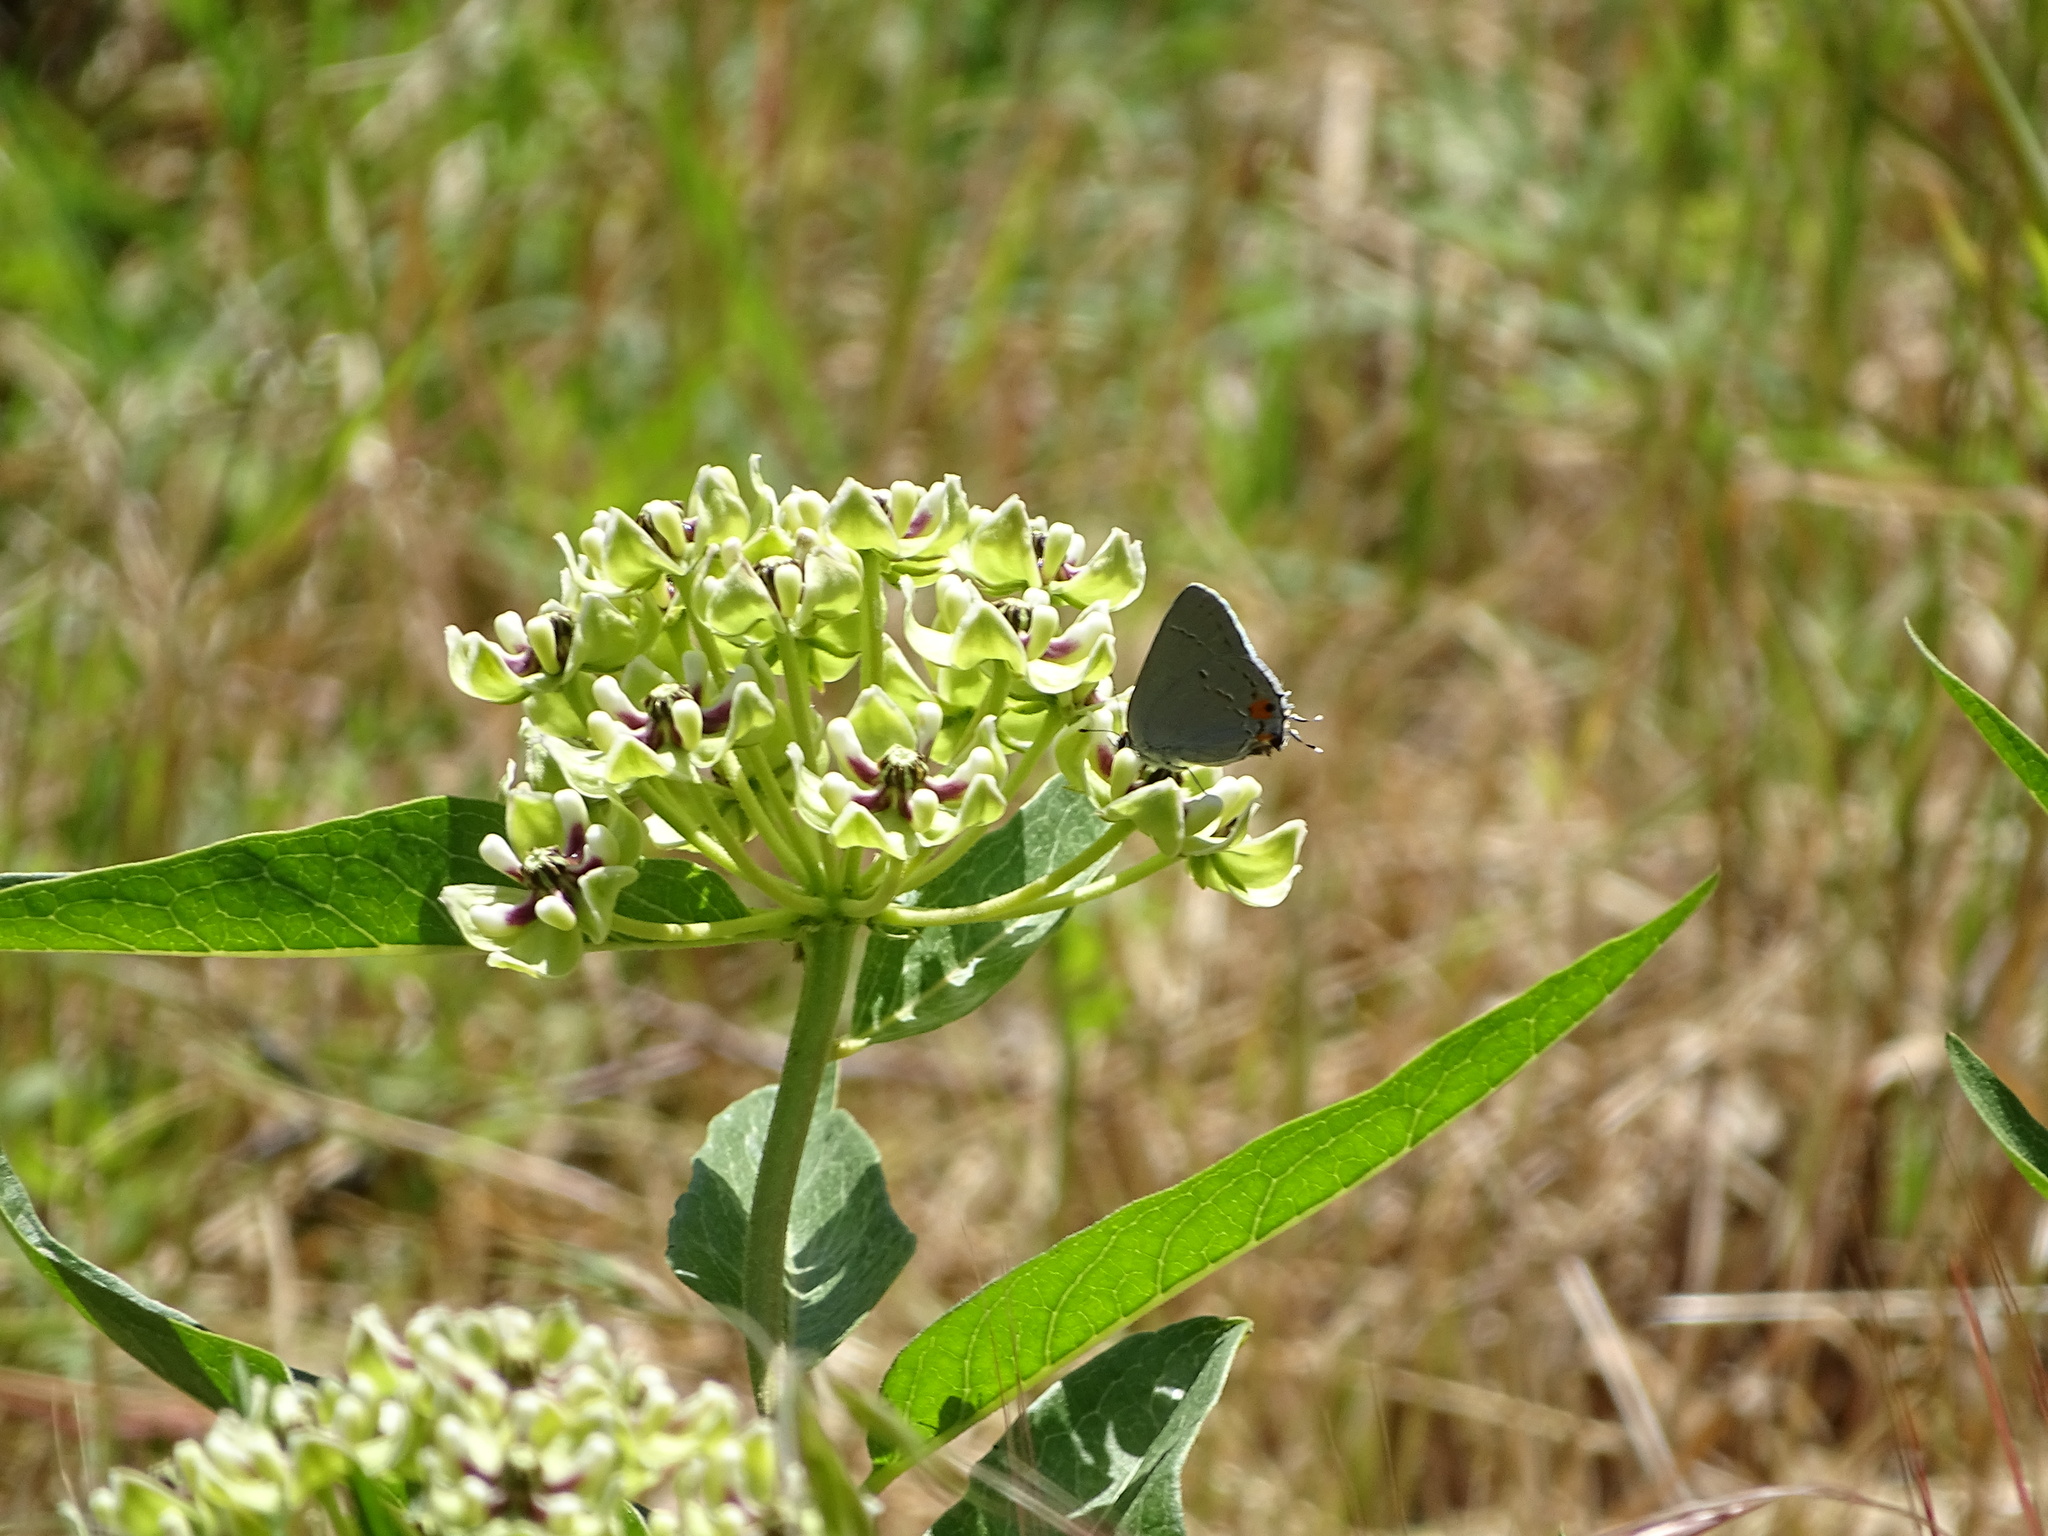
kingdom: Animalia
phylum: Arthropoda
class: Insecta
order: Lepidoptera
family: Lycaenidae
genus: Strymon
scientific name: Strymon melinus
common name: Gray hairstreak
